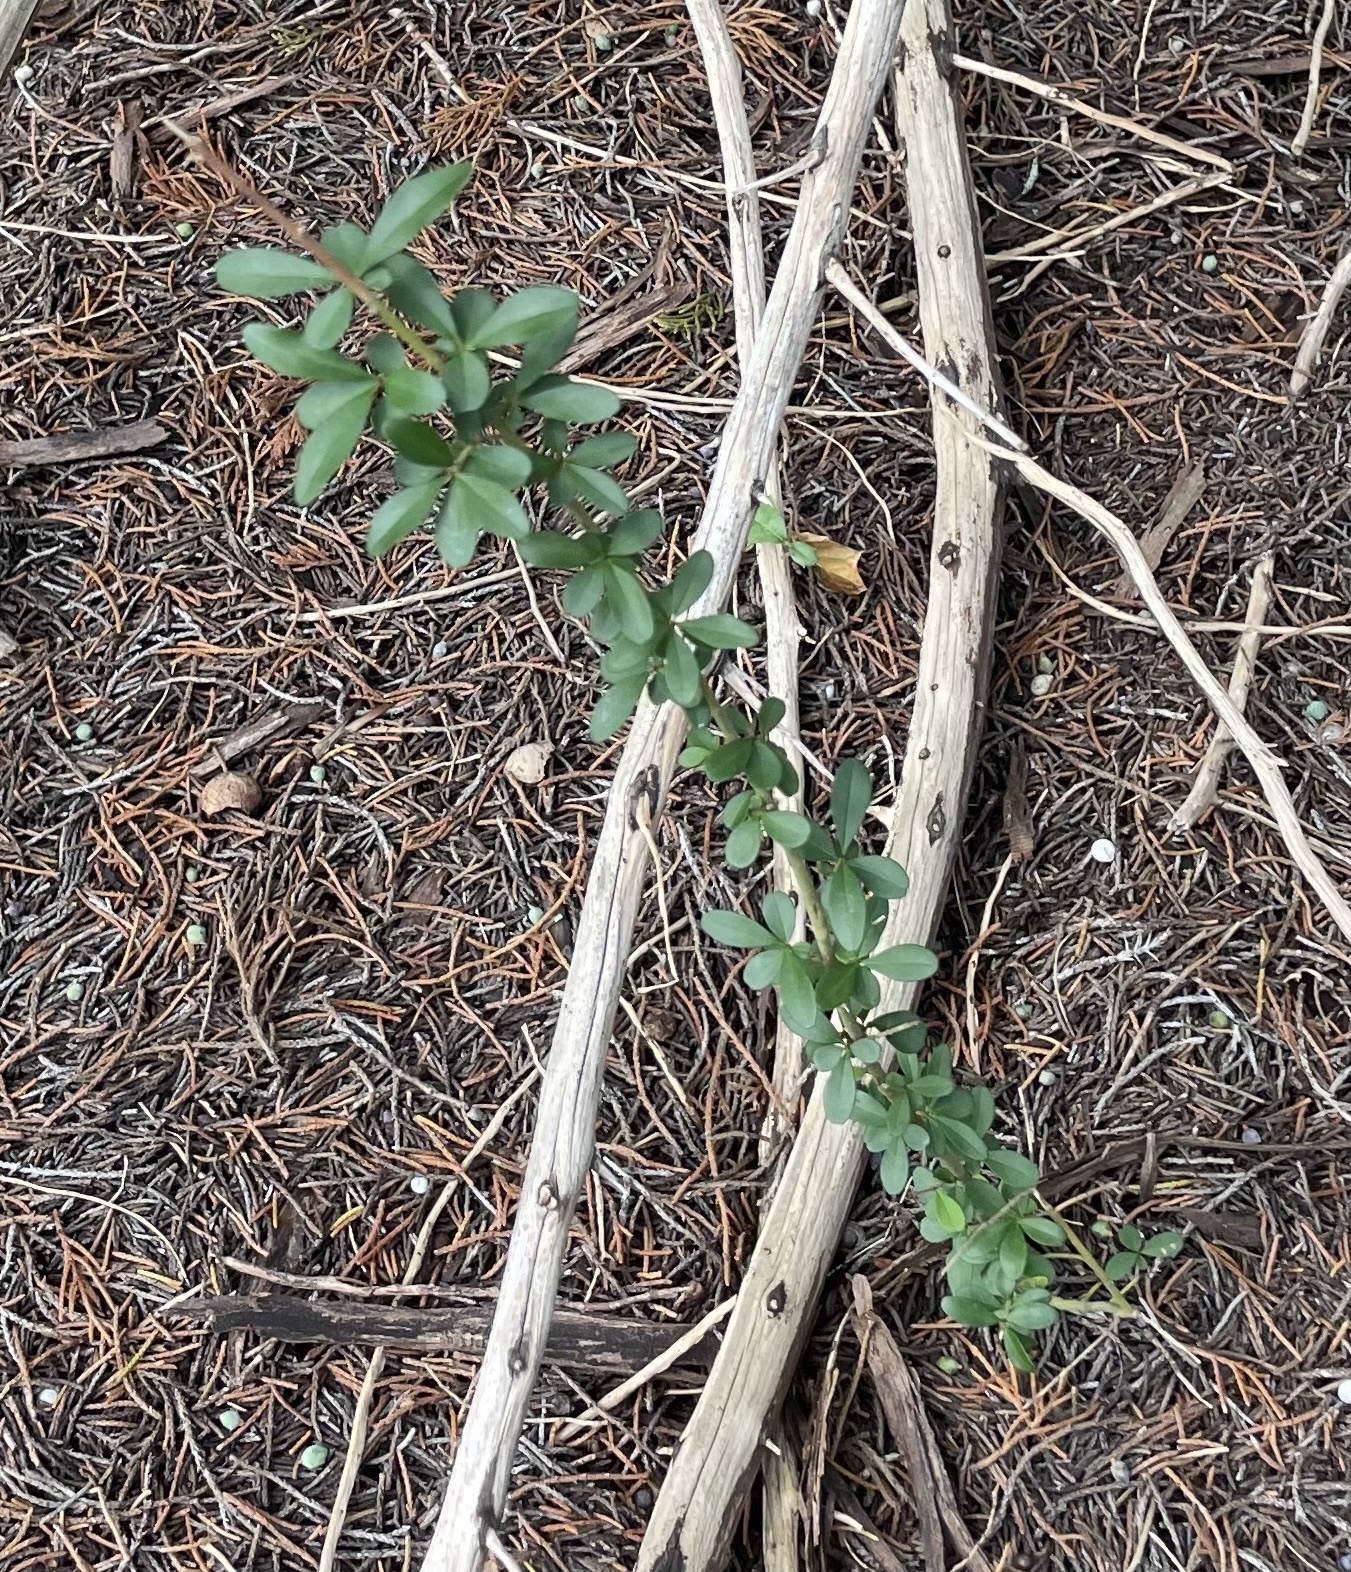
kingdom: Plantae
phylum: Tracheophyta
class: Magnoliopsida
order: Lamiales
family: Oleaceae
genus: Ligustrum
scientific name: Ligustrum quihoui
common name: Waxyleaf privet
